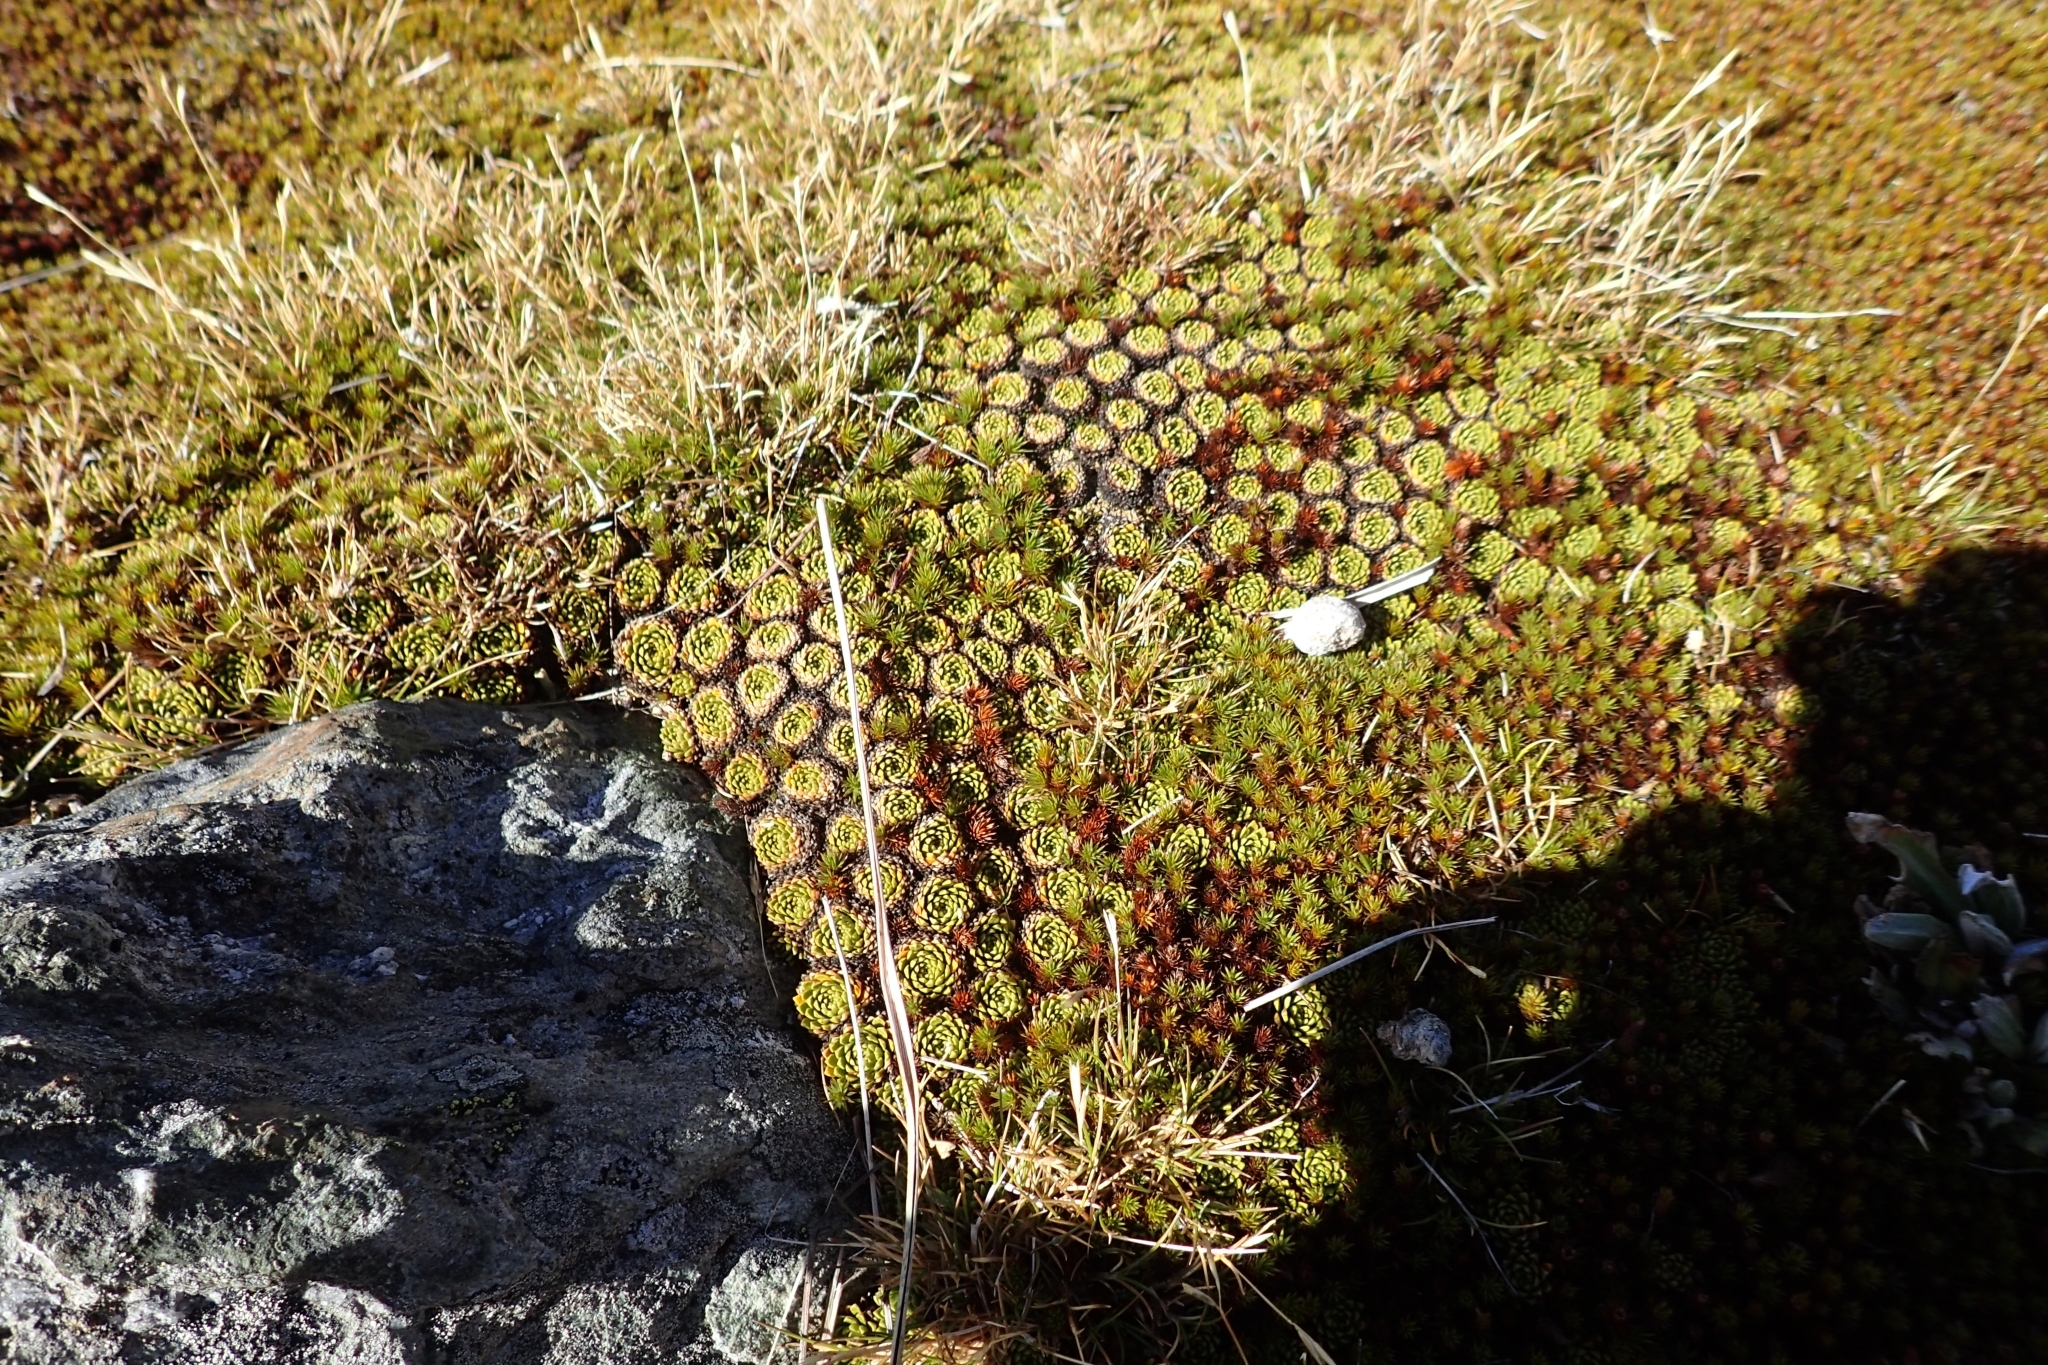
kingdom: Plantae
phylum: Tracheophyta
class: Magnoliopsida
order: Caryophyllales
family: Montiaceae
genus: Hectorella
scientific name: Hectorella caespitosa
